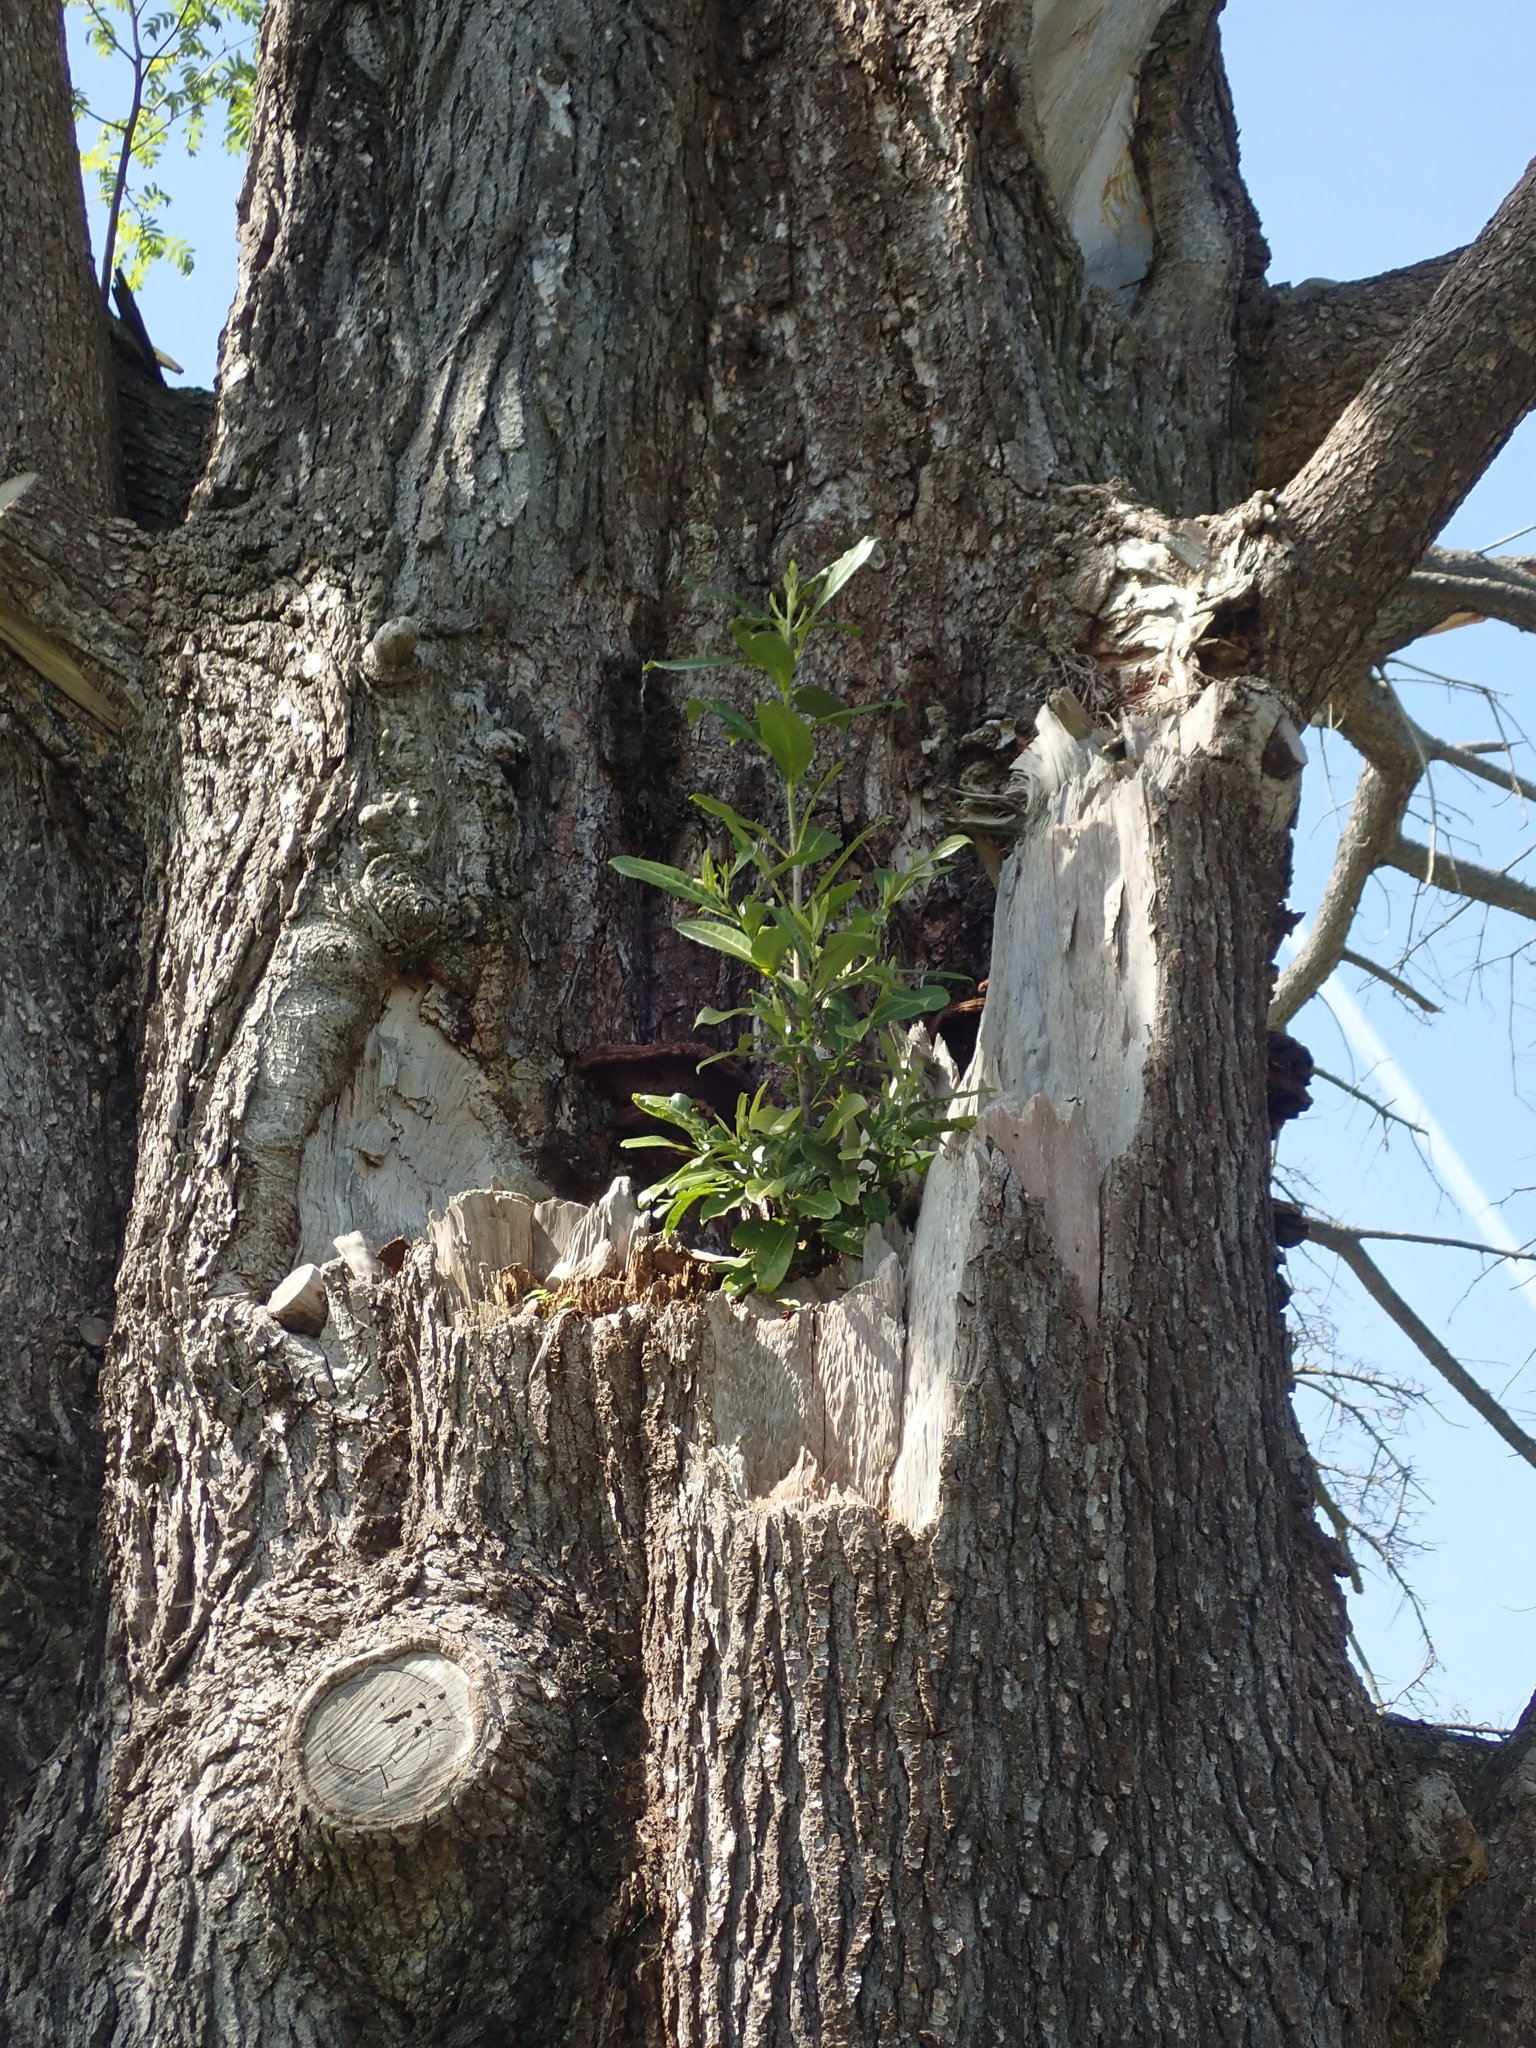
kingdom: Plantae
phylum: Tracheophyta
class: Magnoliopsida
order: Rosales
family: Rosaceae
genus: Prunus
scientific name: Prunus laurocerasus
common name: Cherry laurel
